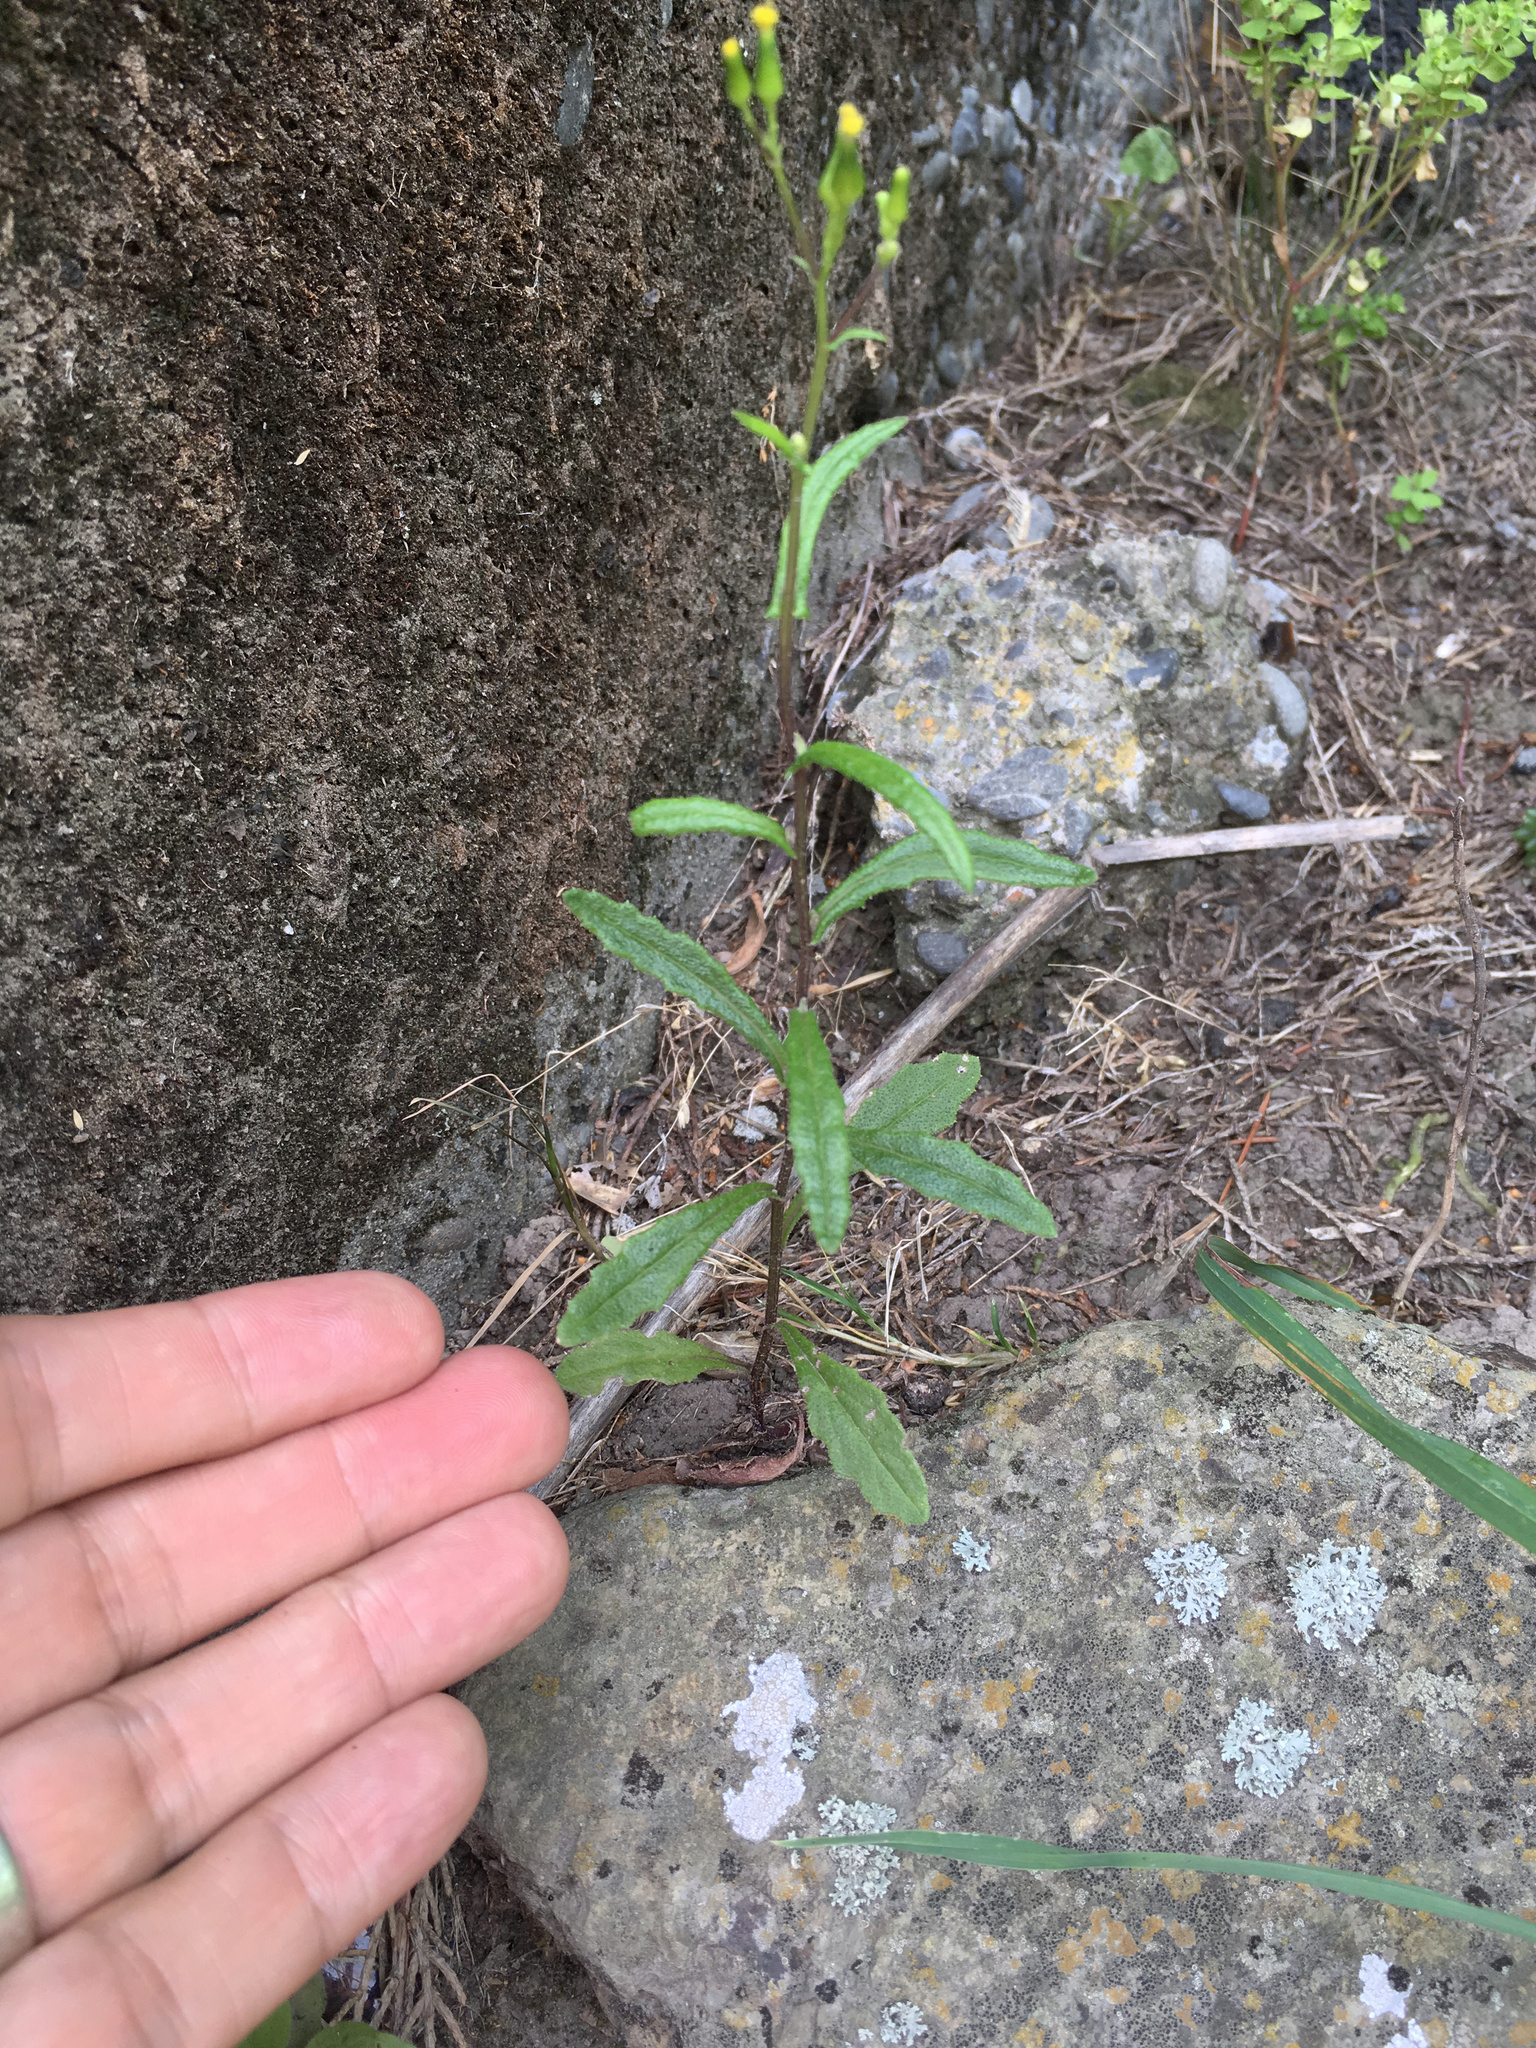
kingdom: Plantae
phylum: Tracheophyta
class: Magnoliopsida
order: Asterales
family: Asteraceae
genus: Senecio
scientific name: Senecio hispidulus
